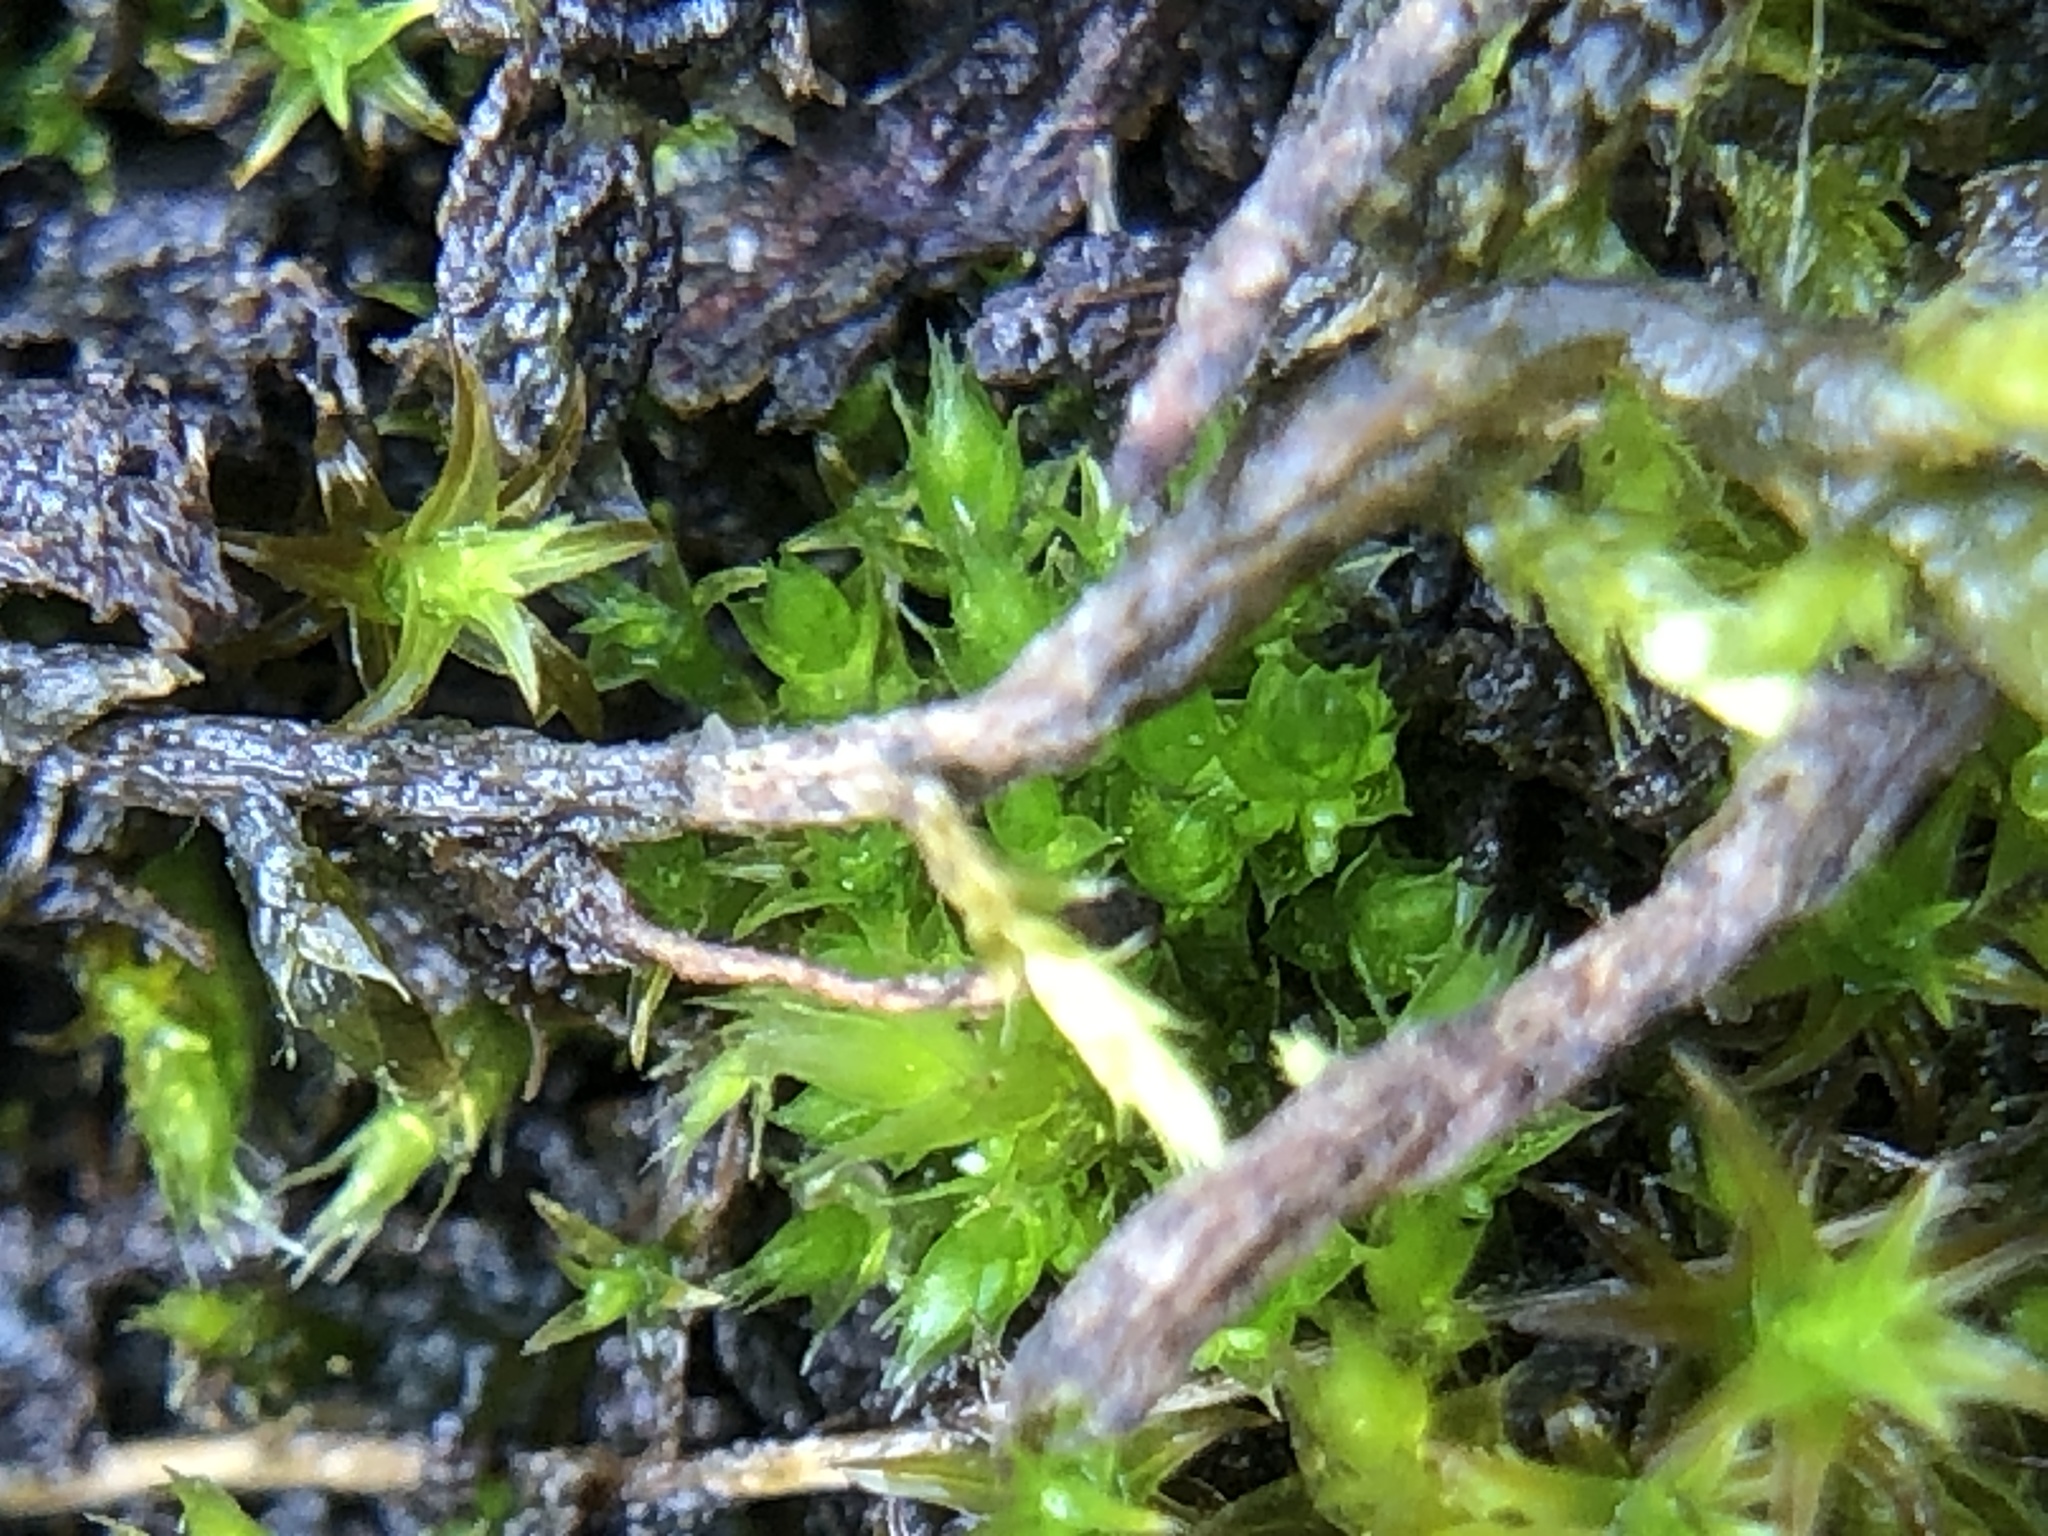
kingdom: Plantae
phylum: Bryophyta
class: Bryopsida
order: Bryales
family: Bryaceae
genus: Gemmabryum
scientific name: Gemmabryum dichotomum
